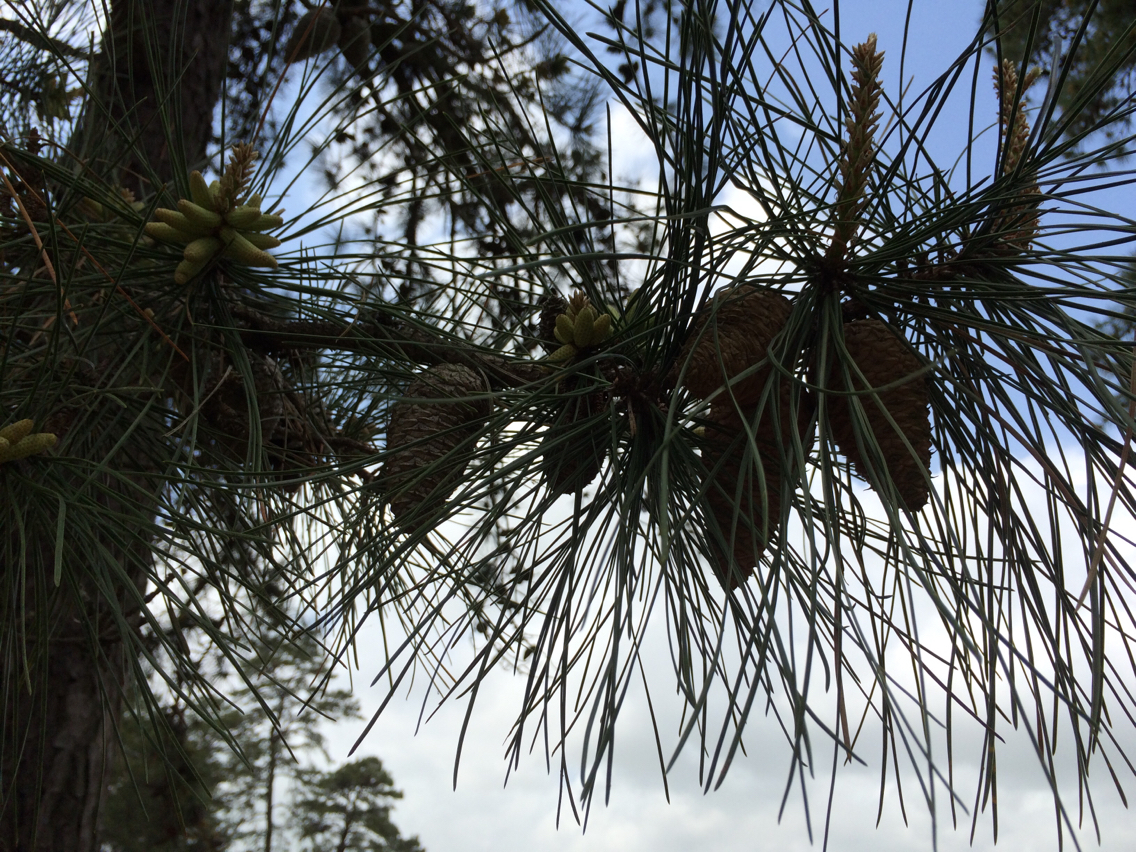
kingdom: Plantae
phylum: Tracheophyta
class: Pinopsida
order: Pinales
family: Pinaceae
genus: Pinus
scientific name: Pinus rigida
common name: Pitch pine
